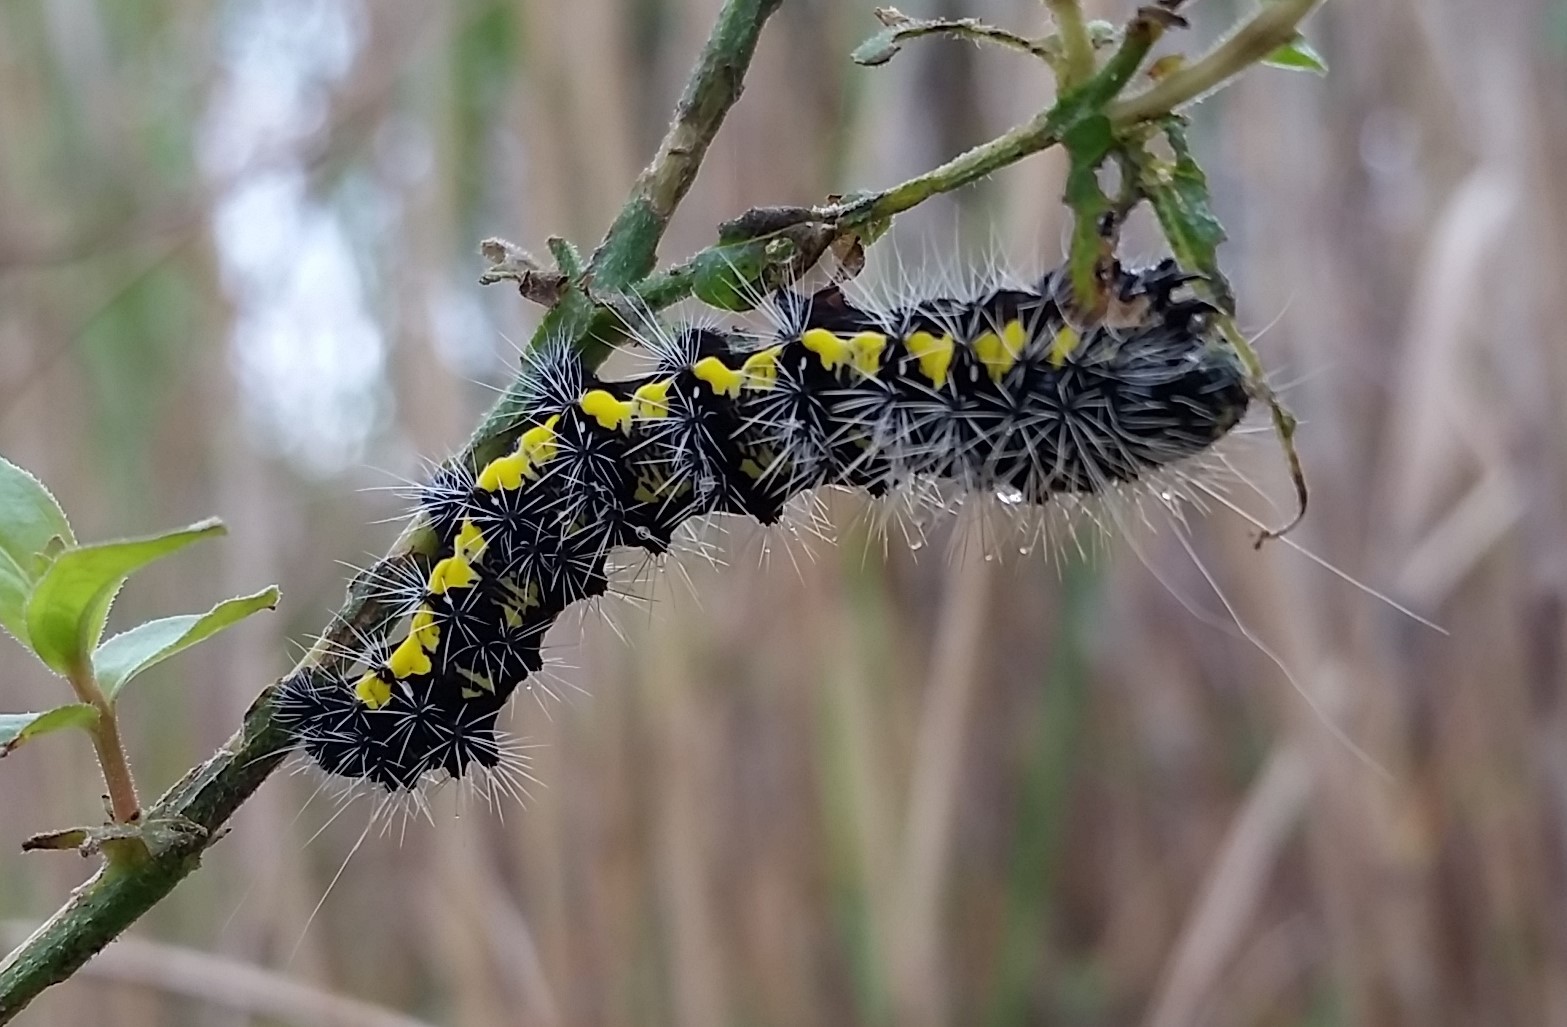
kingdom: Animalia
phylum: Arthropoda
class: Insecta
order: Lepidoptera
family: Noctuidae
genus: Acronicta
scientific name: Acronicta oblinita
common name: Smeared dagger
